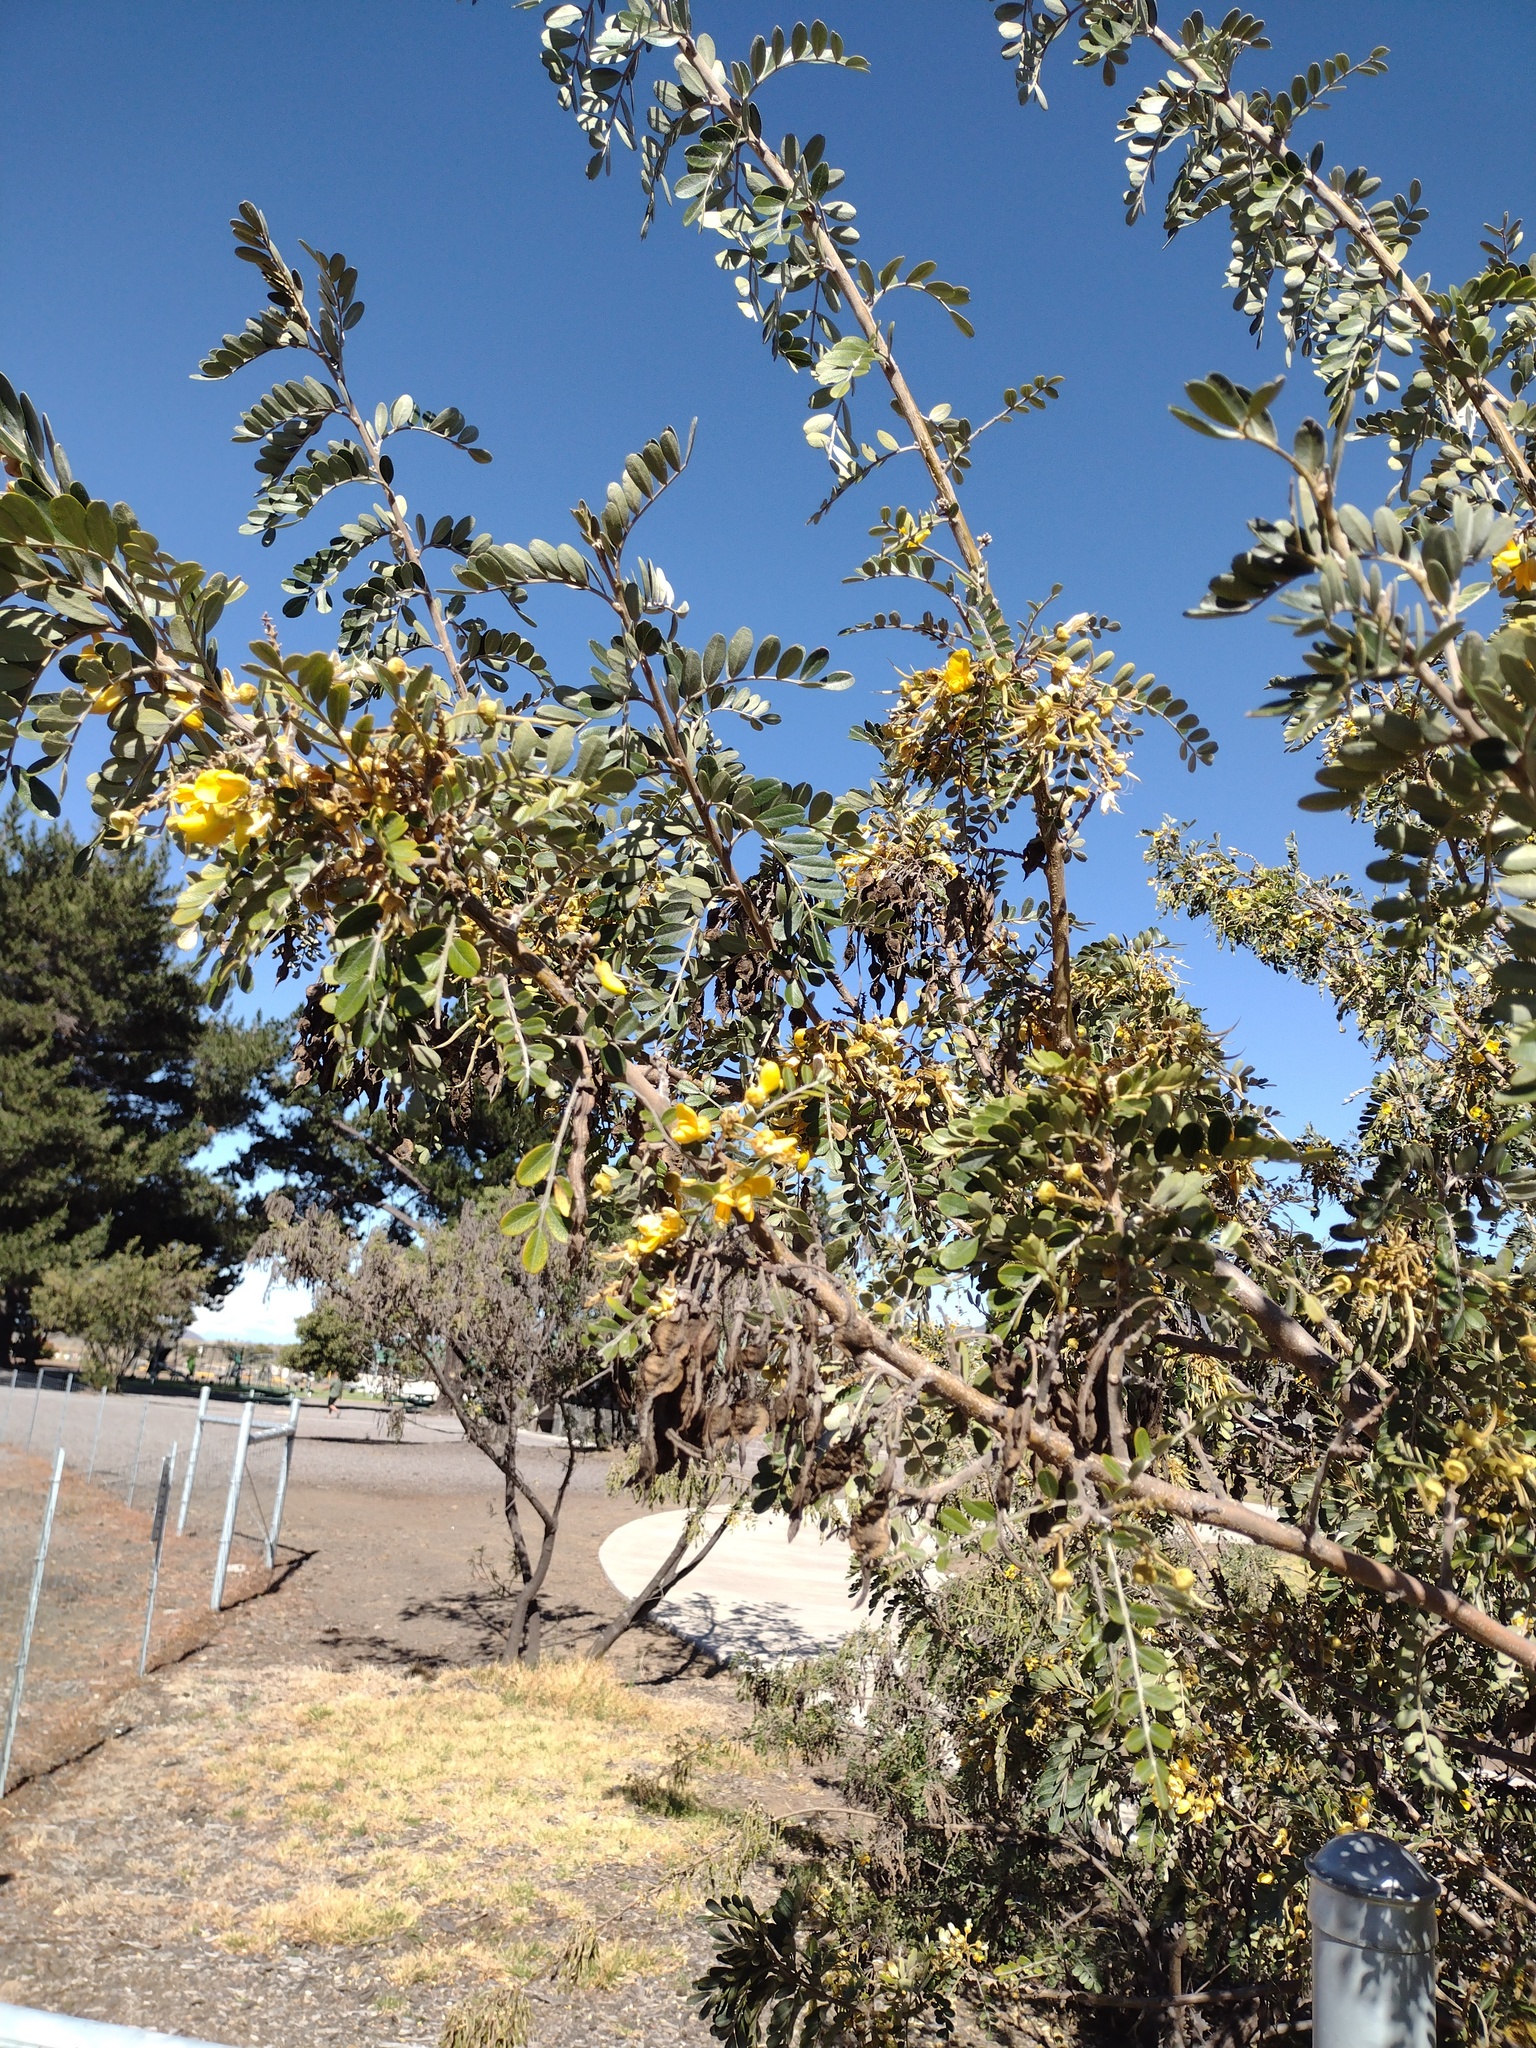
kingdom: Plantae
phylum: Tracheophyta
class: Magnoliopsida
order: Fabales
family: Fabaceae
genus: Sophora
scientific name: Sophora chrysophylla
